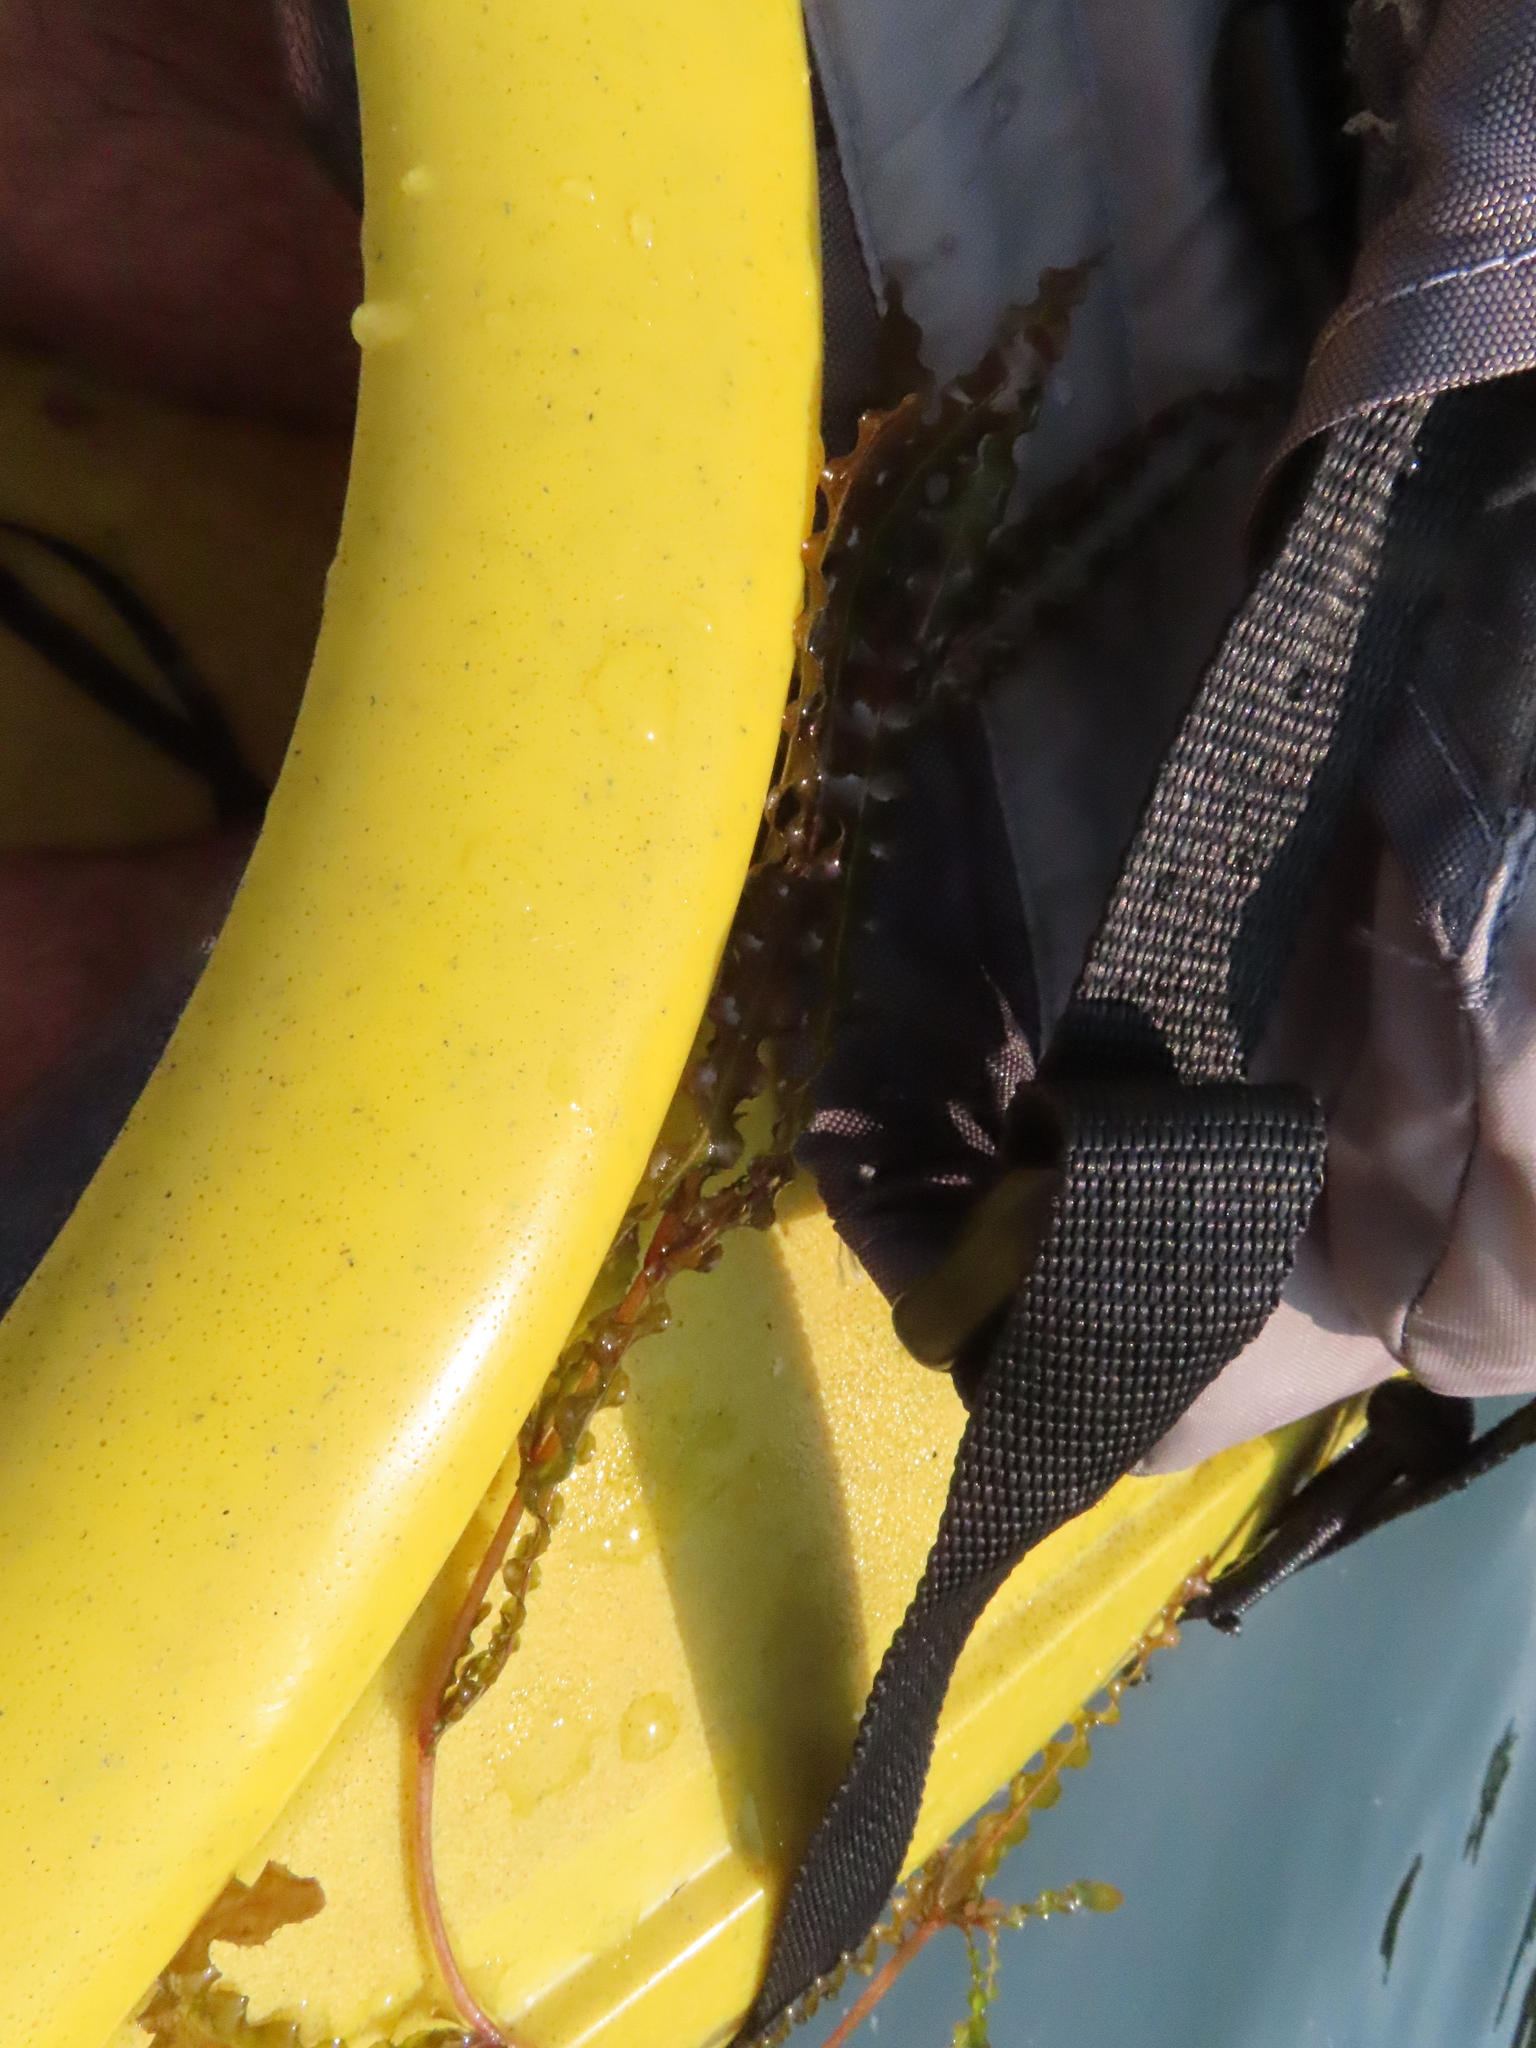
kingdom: Plantae
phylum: Tracheophyta
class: Liliopsida
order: Alismatales
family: Potamogetonaceae
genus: Potamogeton
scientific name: Potamogeton crispus
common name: Curled pondweed
